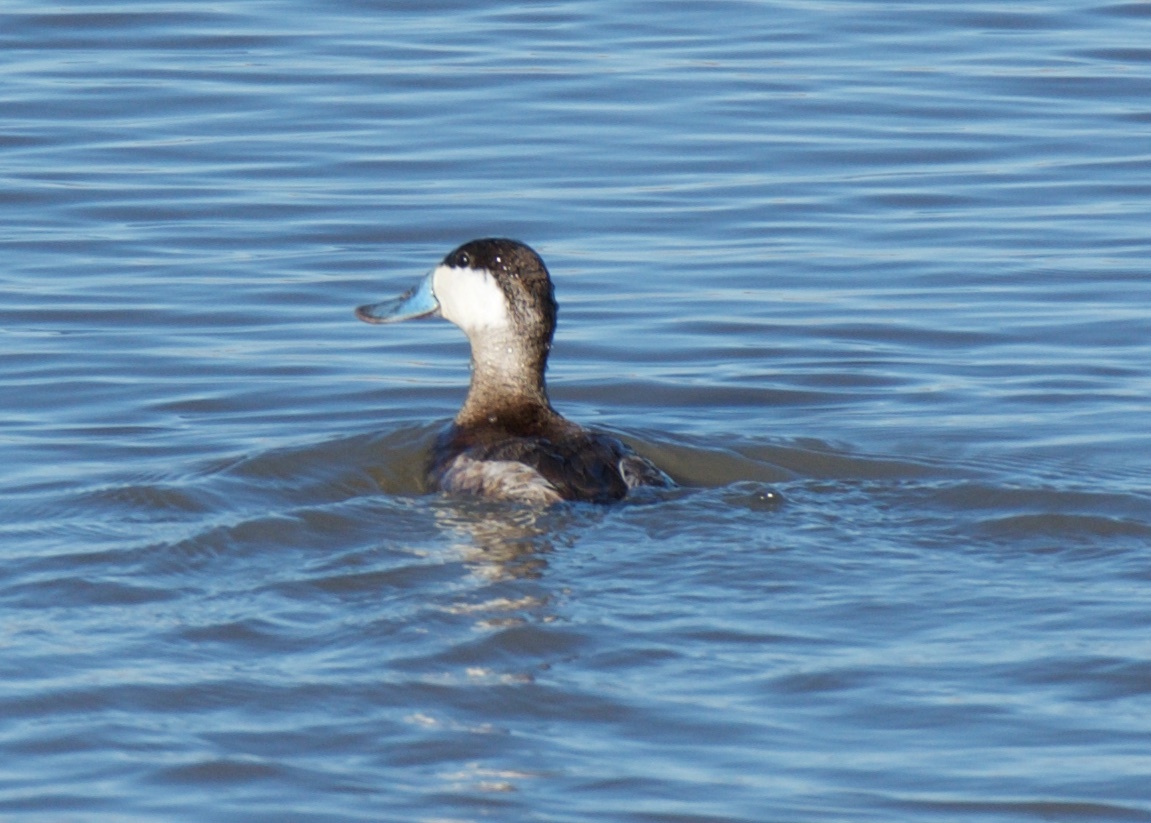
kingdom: Animalia
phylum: Chordata
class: Aves
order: Anseriformes
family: Anatidae
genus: Oxyura
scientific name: Oxyura jamaicensis
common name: Ruddy duck
